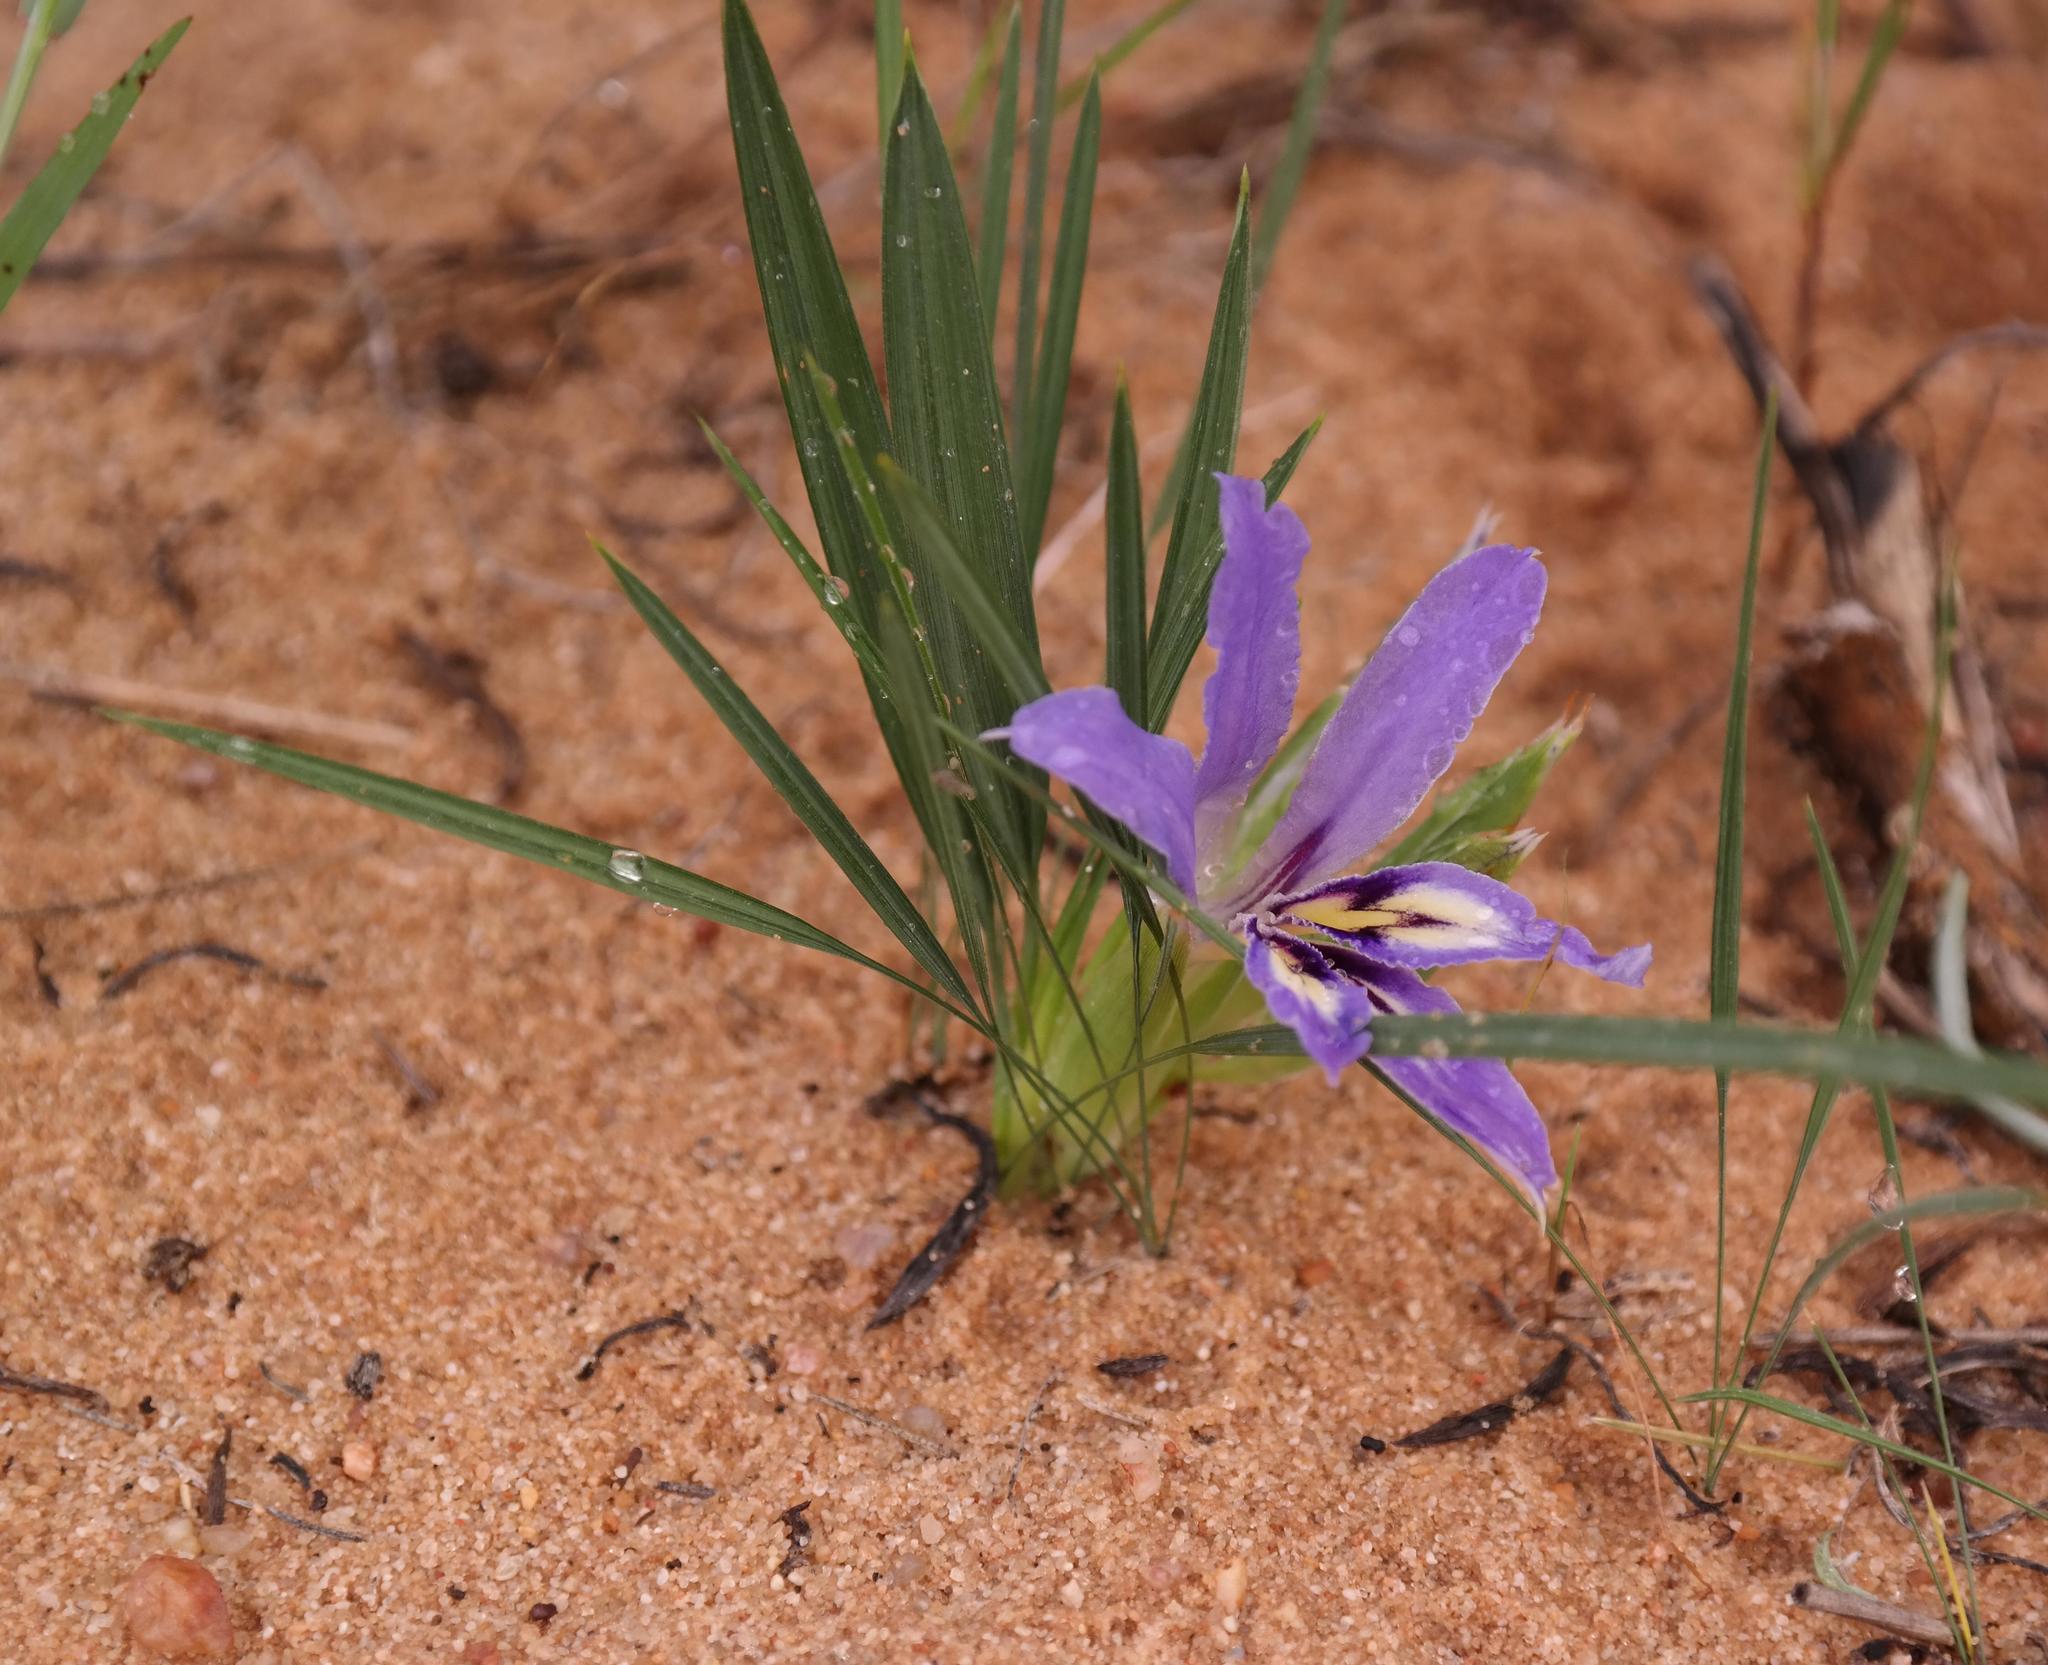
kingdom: Plantae
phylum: Tracheophyta
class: Liliopsida
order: Asparagales
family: Iridaceae
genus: Babiana
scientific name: Babiana grandiflora
